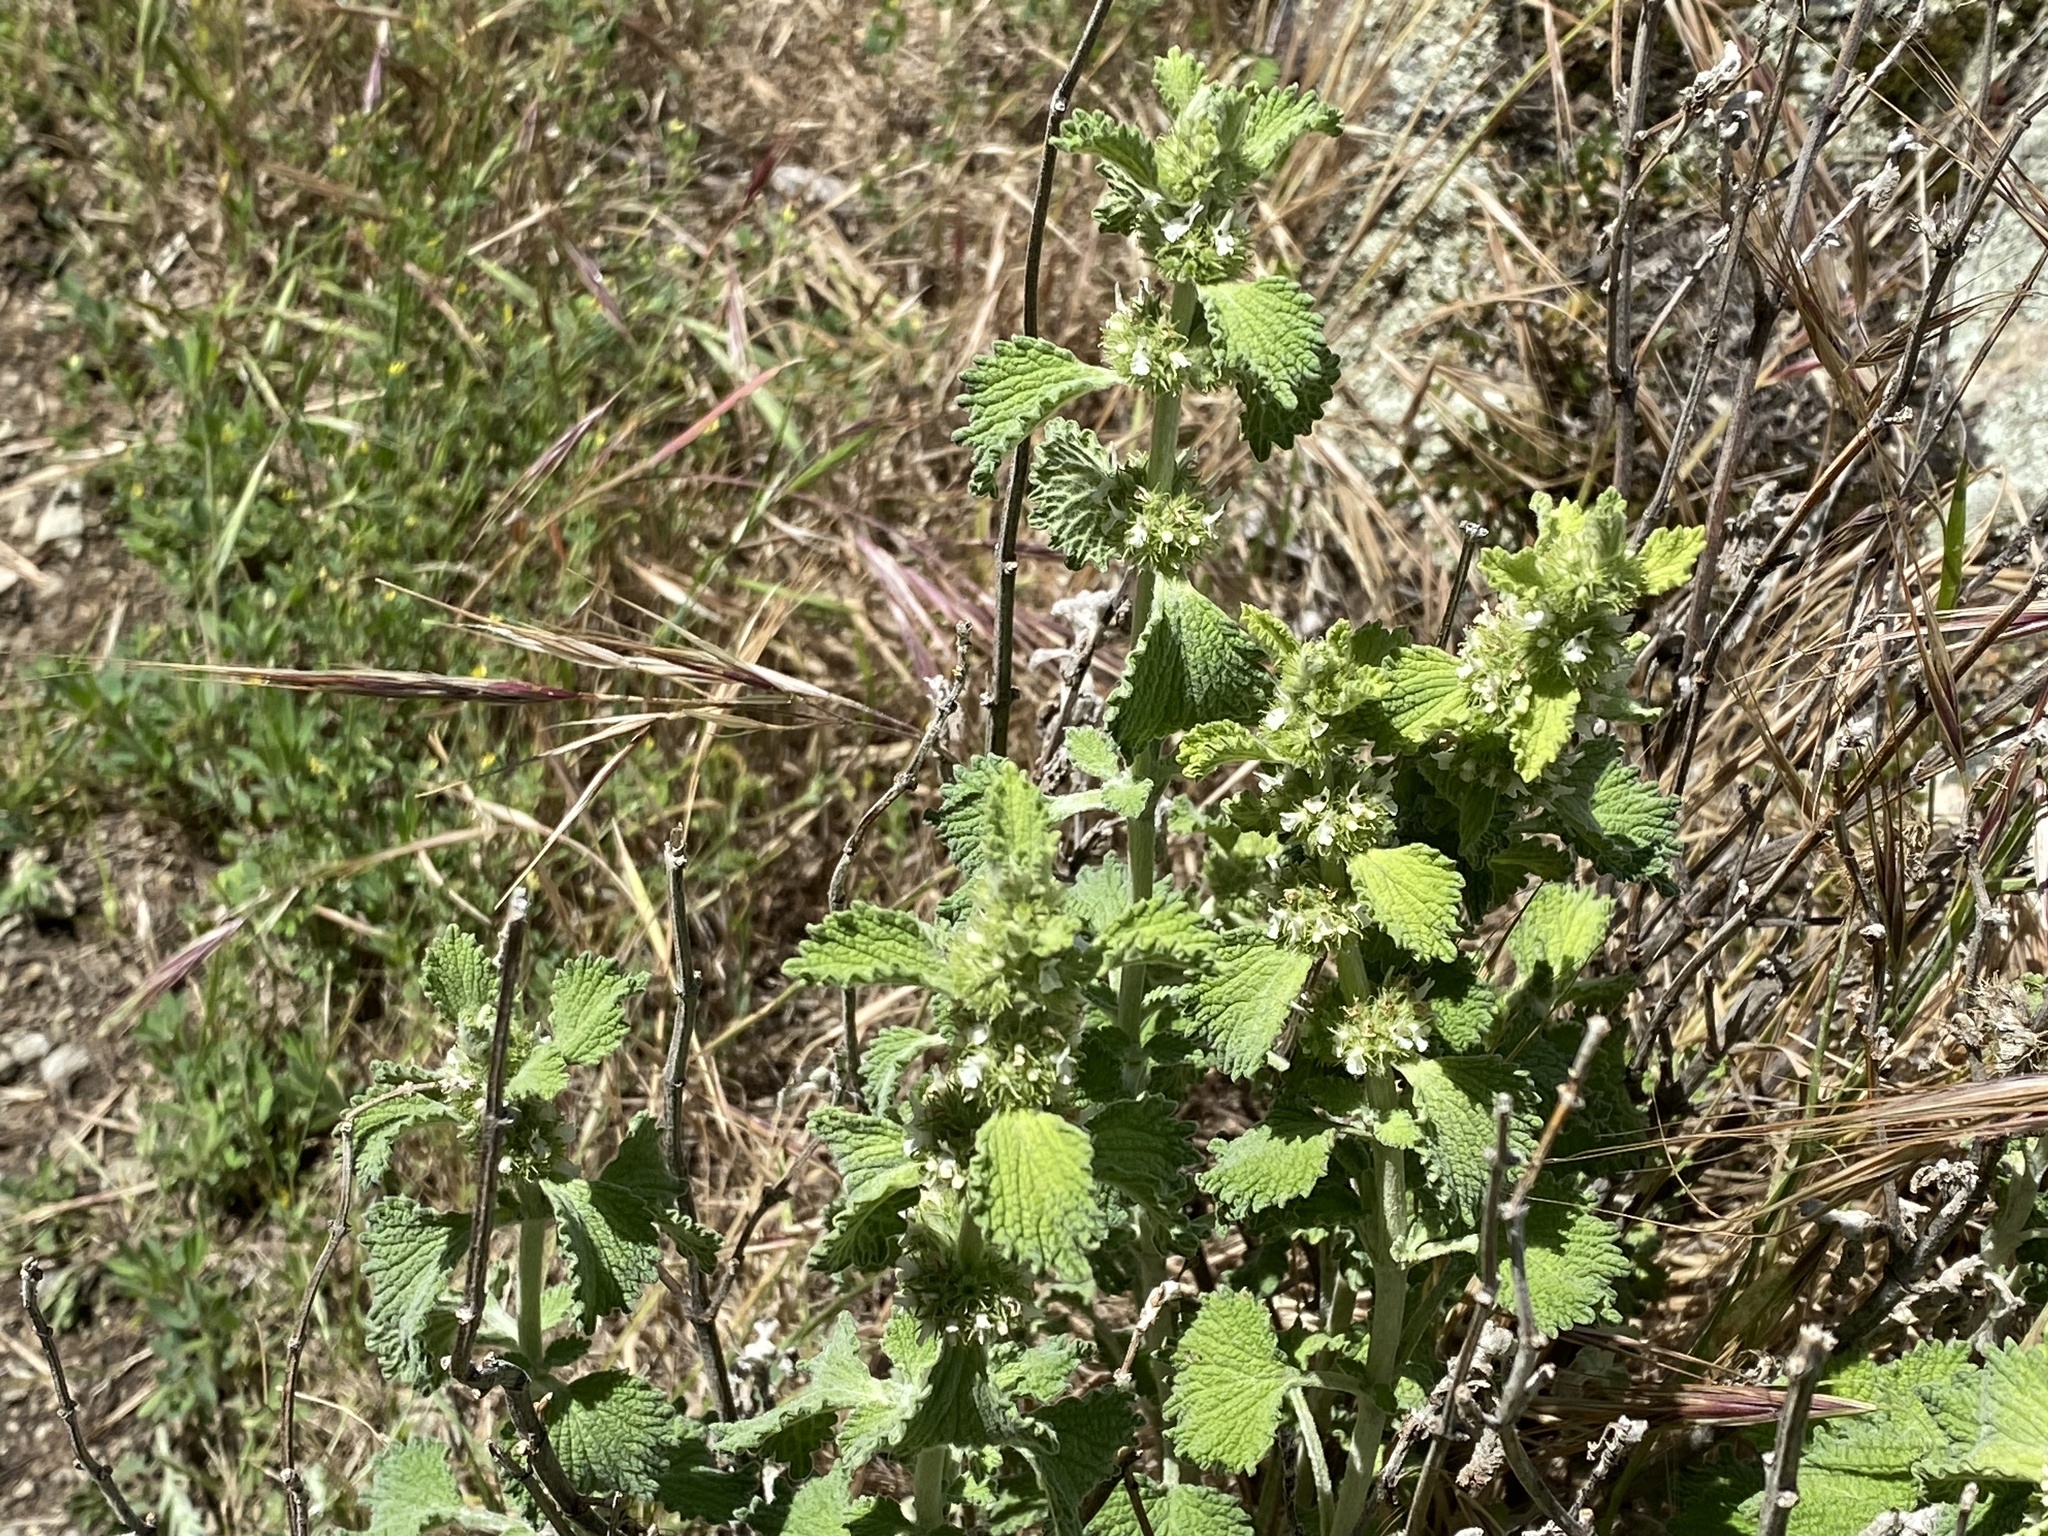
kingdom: Plantae
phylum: Tracheophyta
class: Magnoliopsida
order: Lamiales
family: Lamiaceae
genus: Marrubium
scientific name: Marrubium vulgare
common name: Horehound
